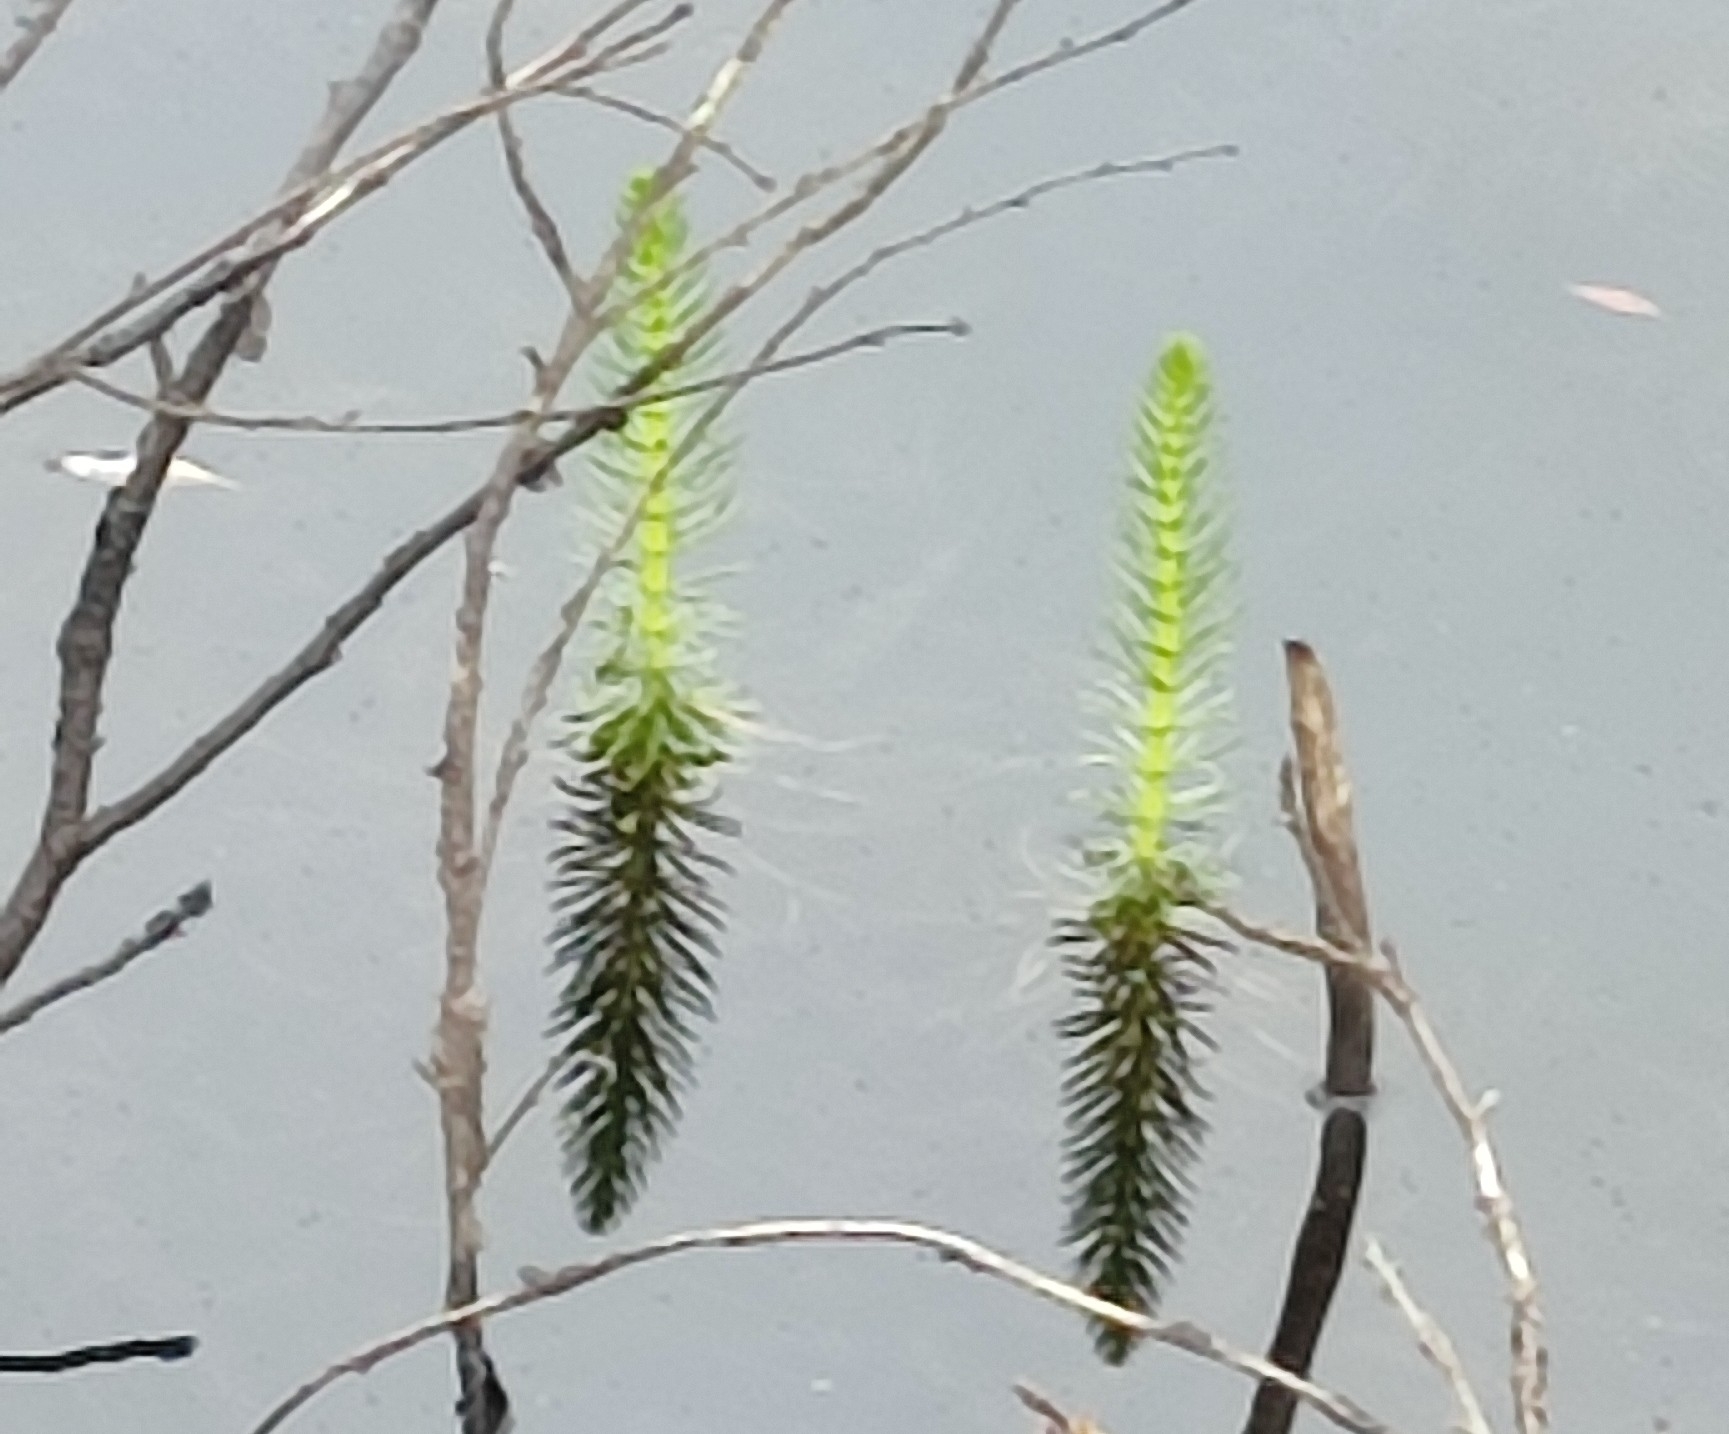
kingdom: Plantae
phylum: Tracheophyta
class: Magnoliopsida
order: Lamiales
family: Plantaginaceae
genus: Hippuris
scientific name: Hippuris vulgaris
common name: Mare's-tail
